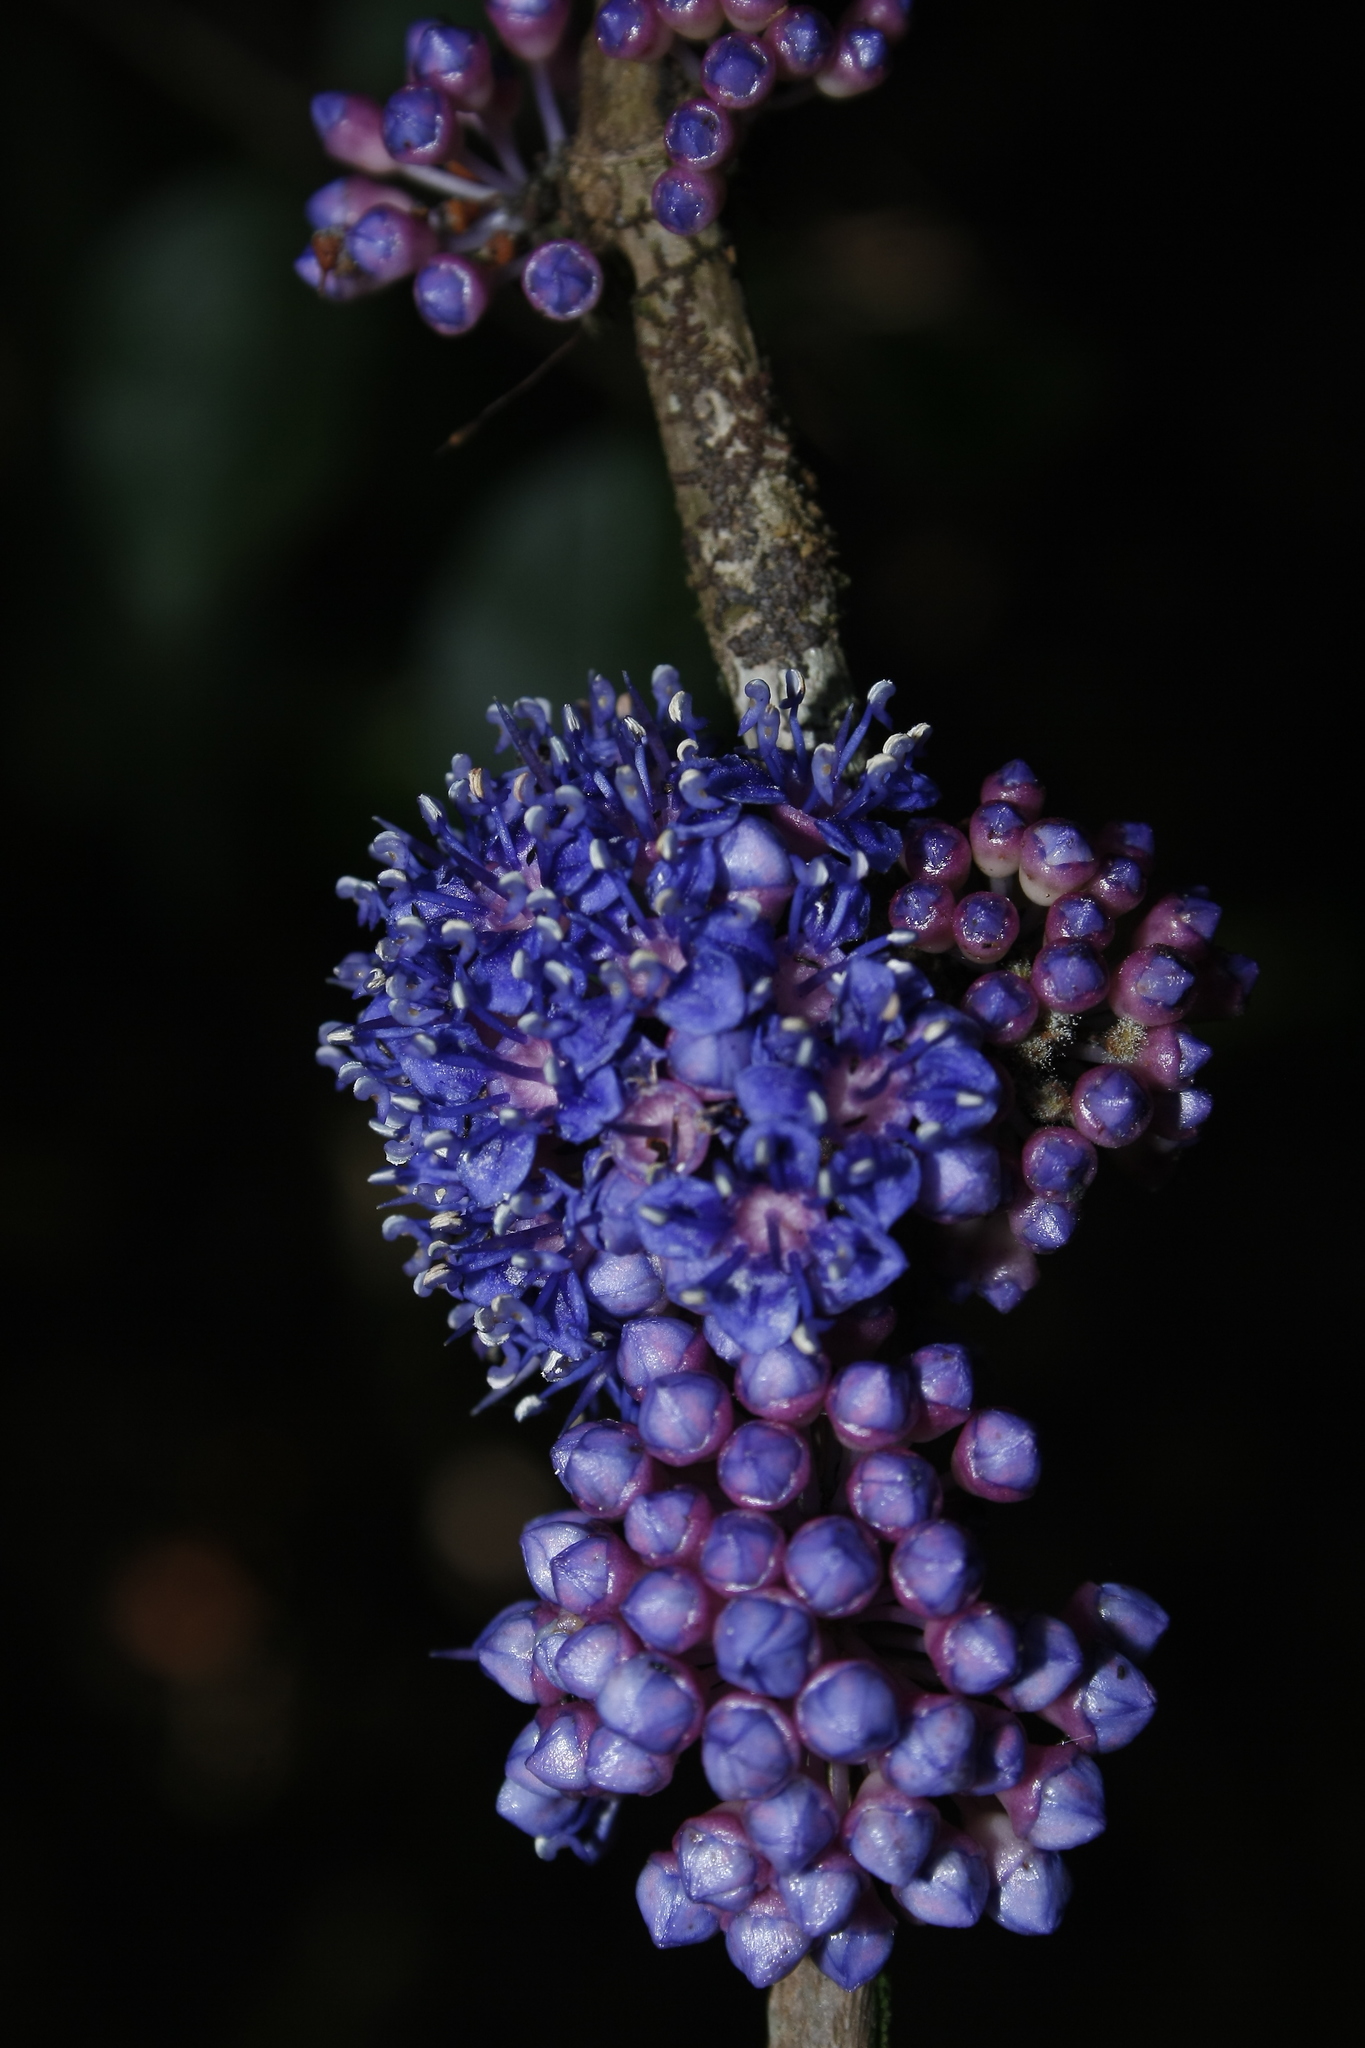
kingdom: Plantae
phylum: Tracheophyta
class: Magnoliopsida
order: Myrtales
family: Melastomataceae
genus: Memecylon
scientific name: Memecylon sessile
